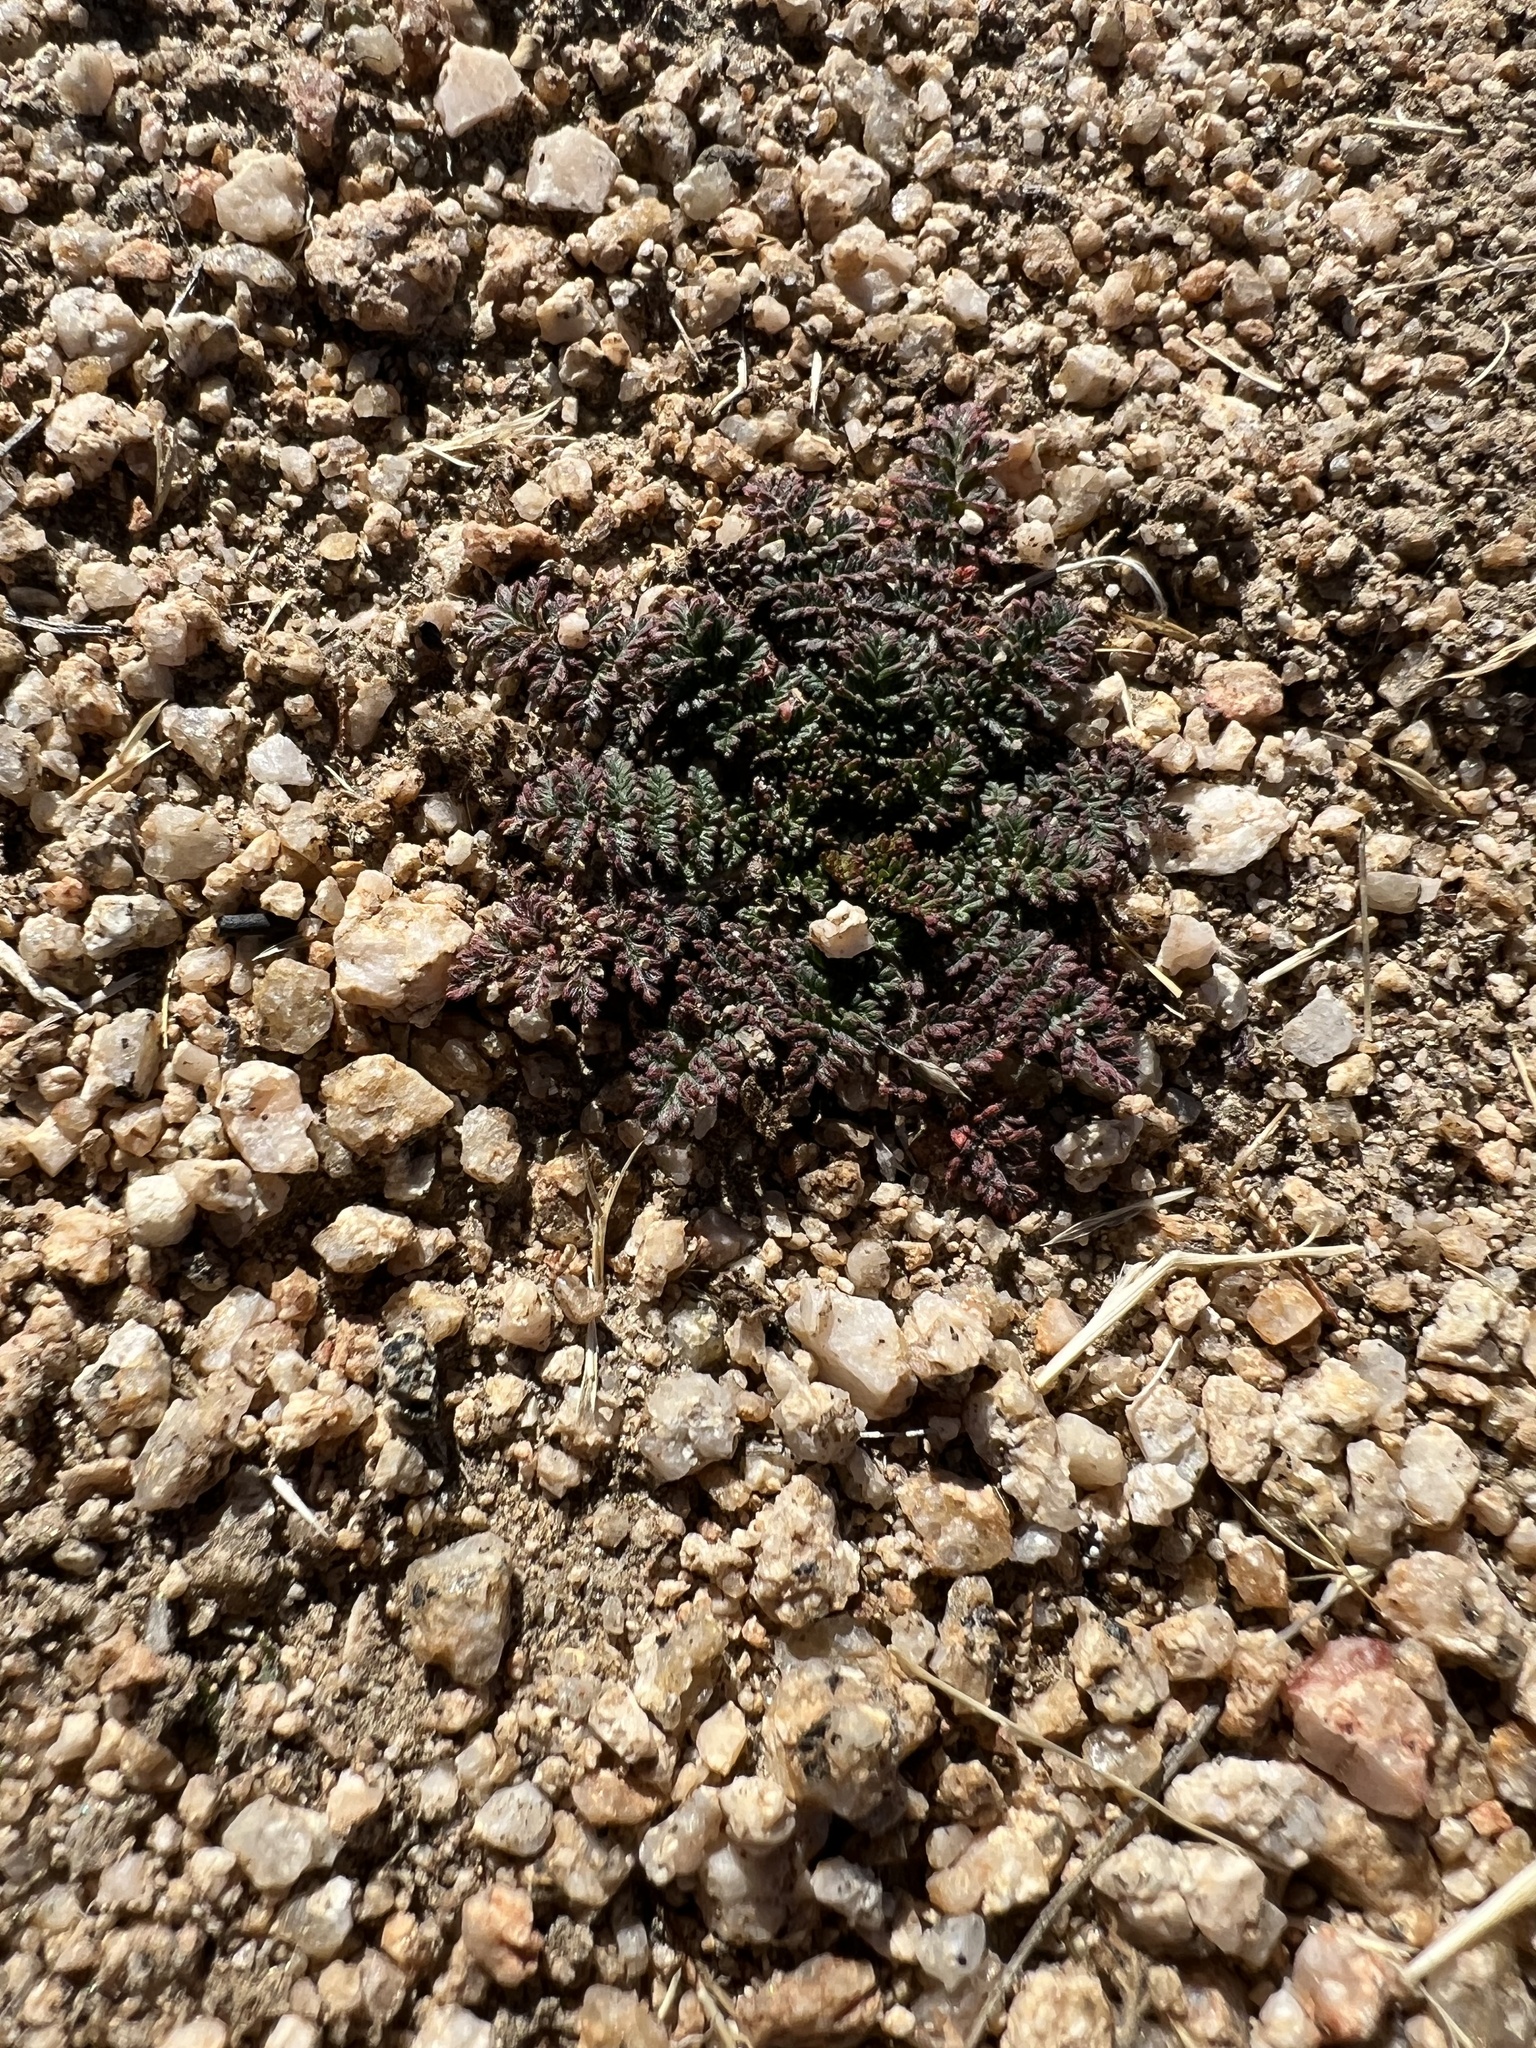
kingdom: Plantae
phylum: Tracheophyta
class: Magnoliopsida
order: Geraniales
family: Geraniaceae
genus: Erodium
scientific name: Erodium cicutarium
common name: Common stork's-bill
